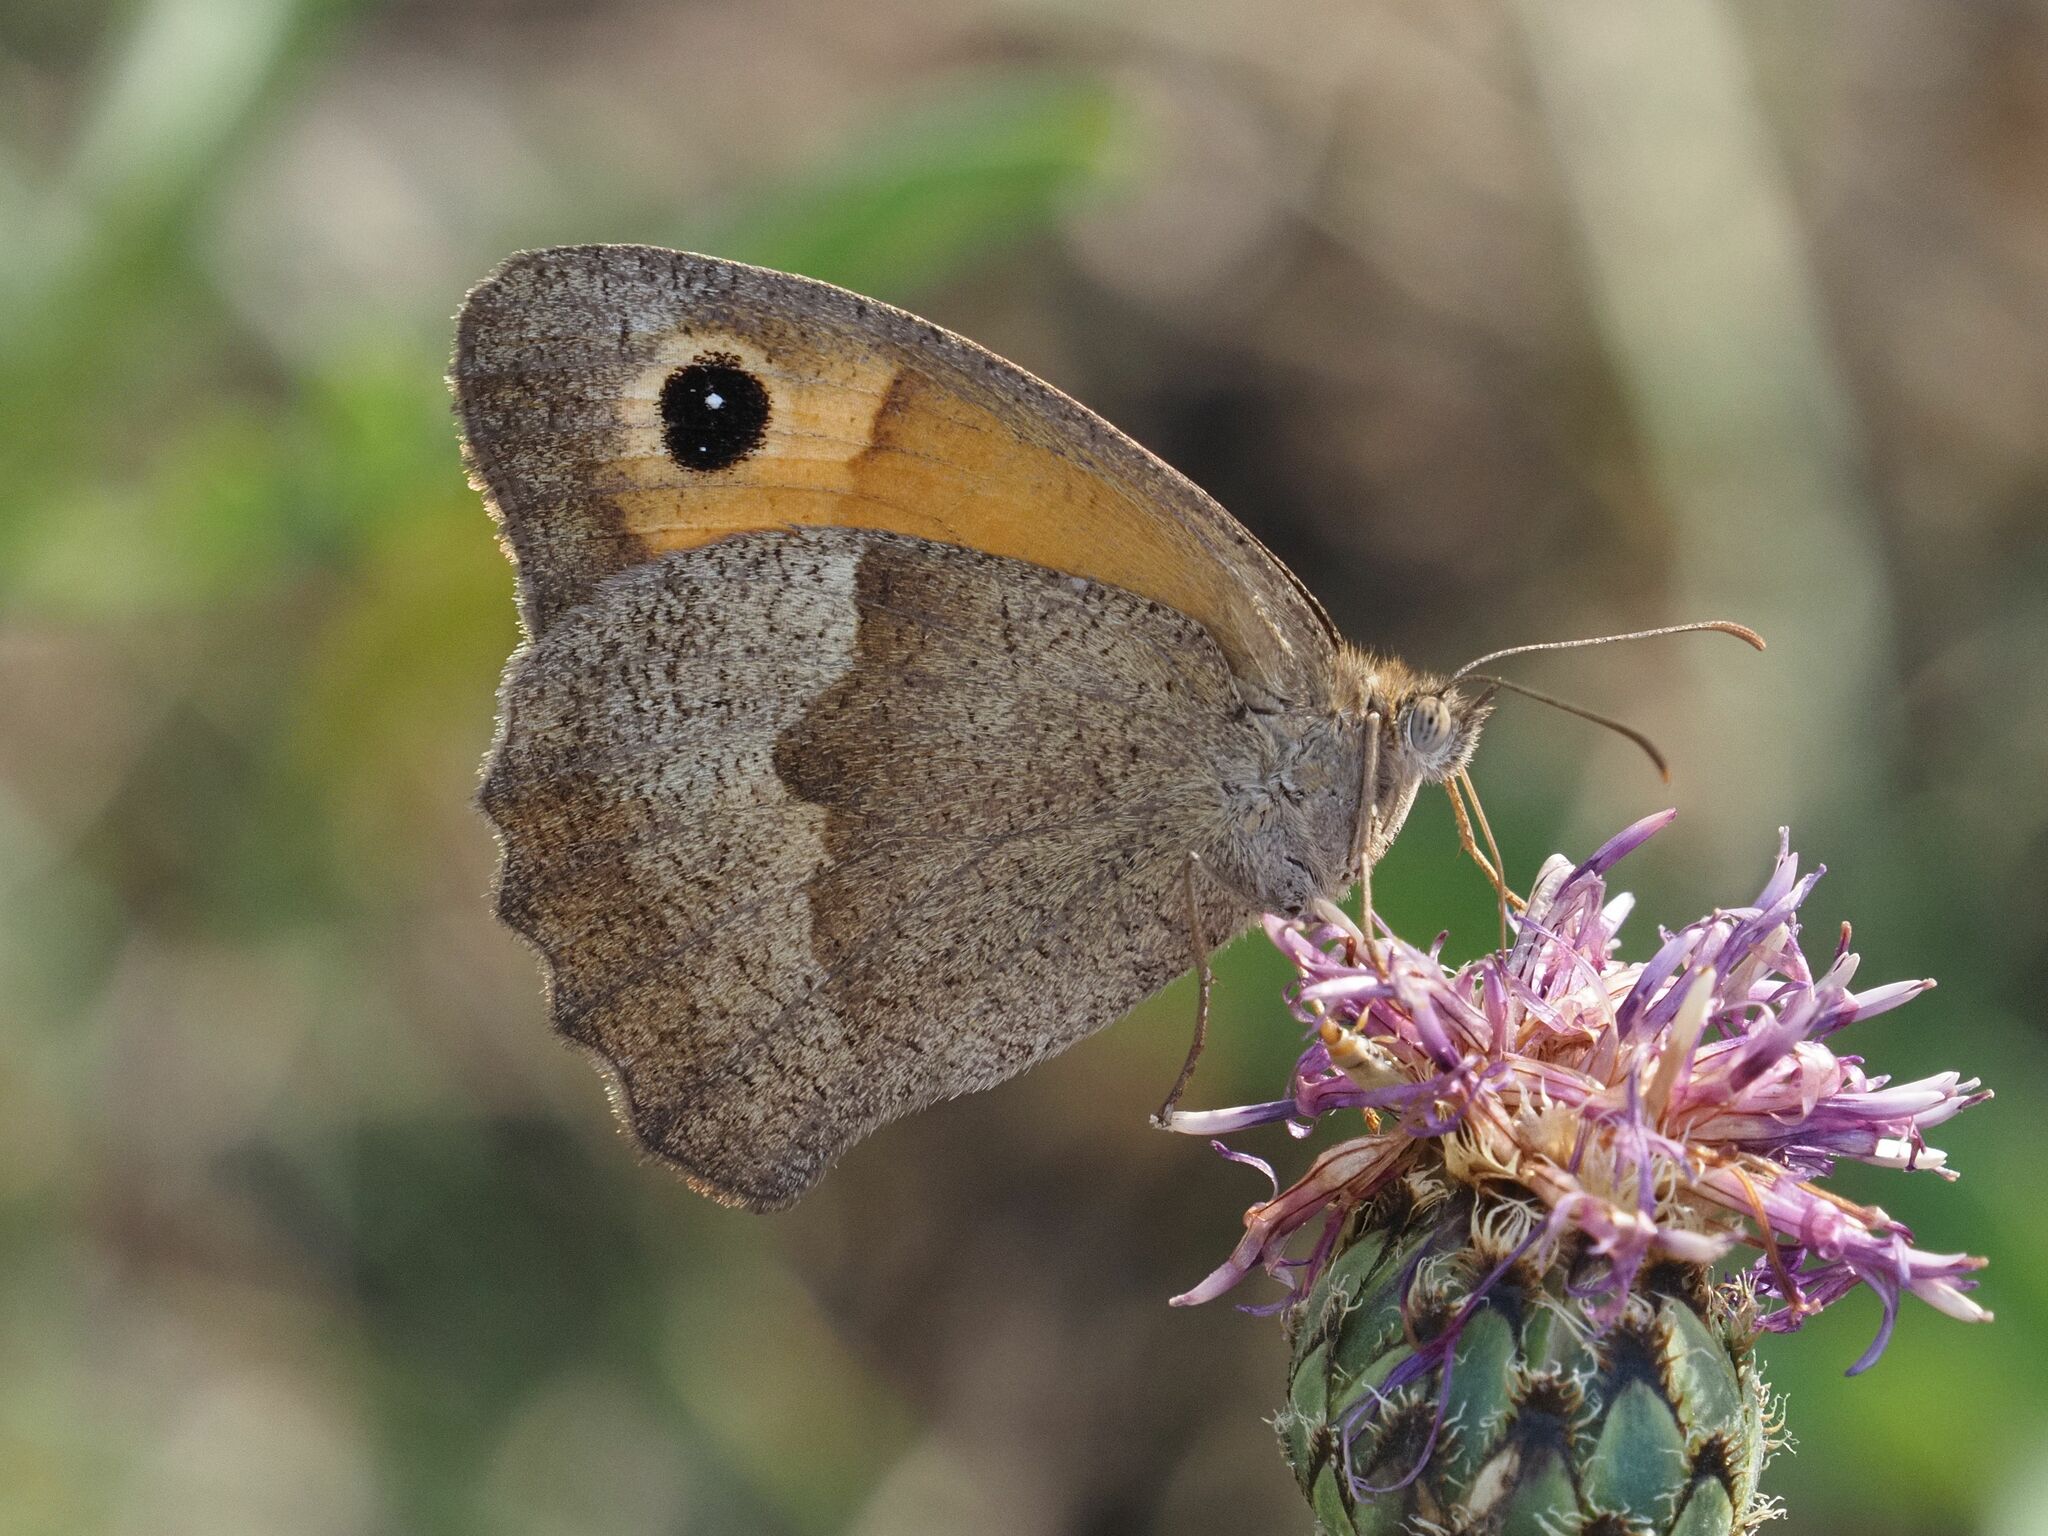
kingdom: Animalia
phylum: Arthropoda
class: Insecta
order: Lepidoptera
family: Nymphalidae
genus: Maniola
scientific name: Maniola jurtina
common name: Meadow brown
